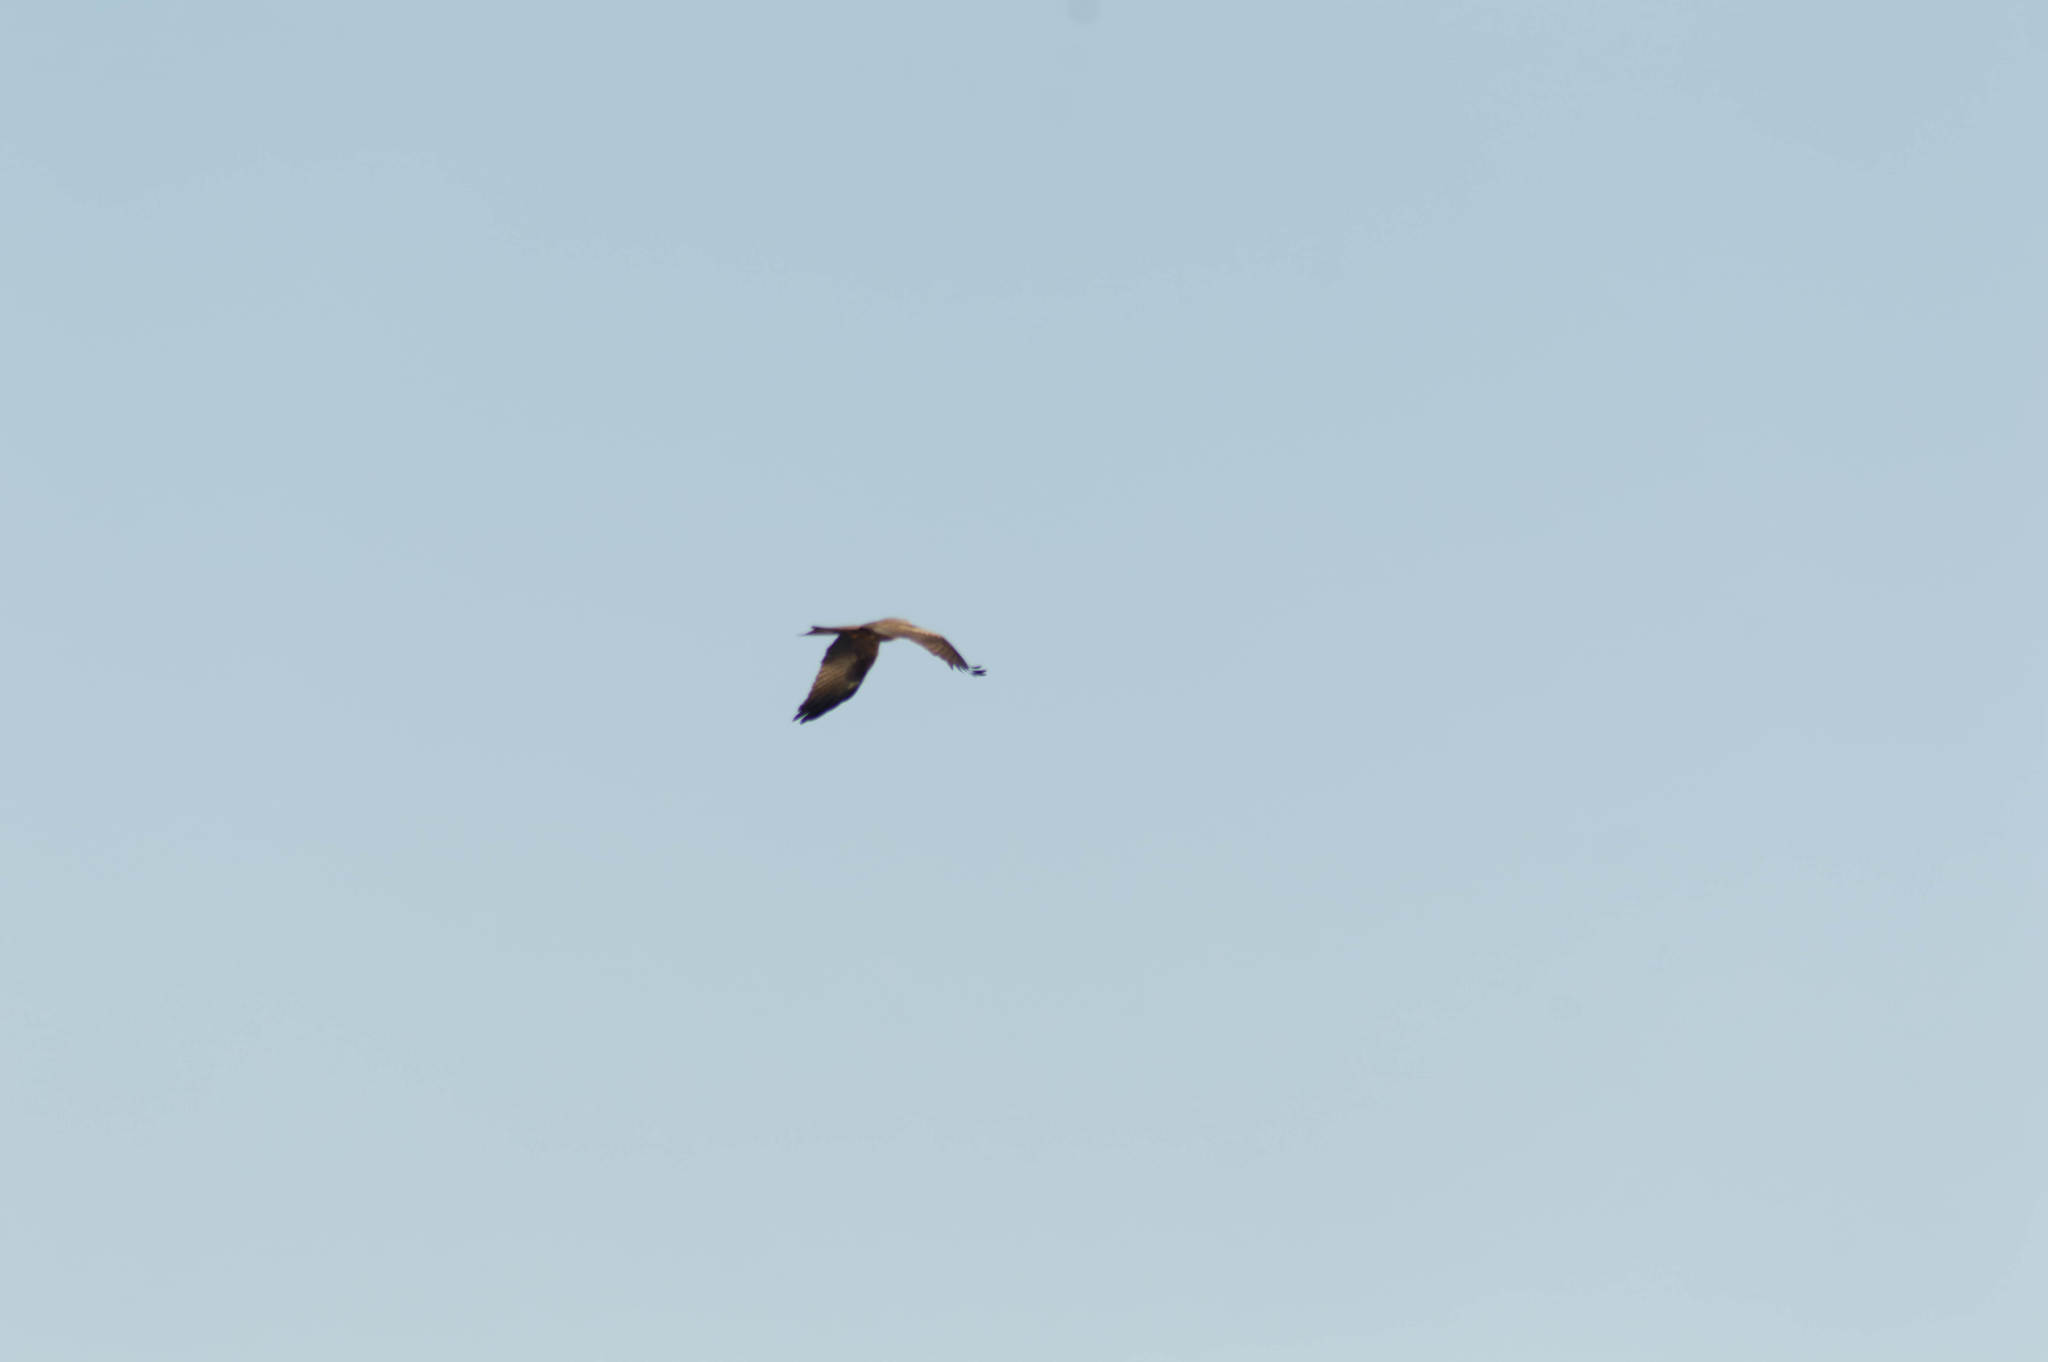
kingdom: Animalia
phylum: Chordata
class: Aves
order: Accipitriformes
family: Accipitridae
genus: Milvus
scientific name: Milvus migrans
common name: Black kite
